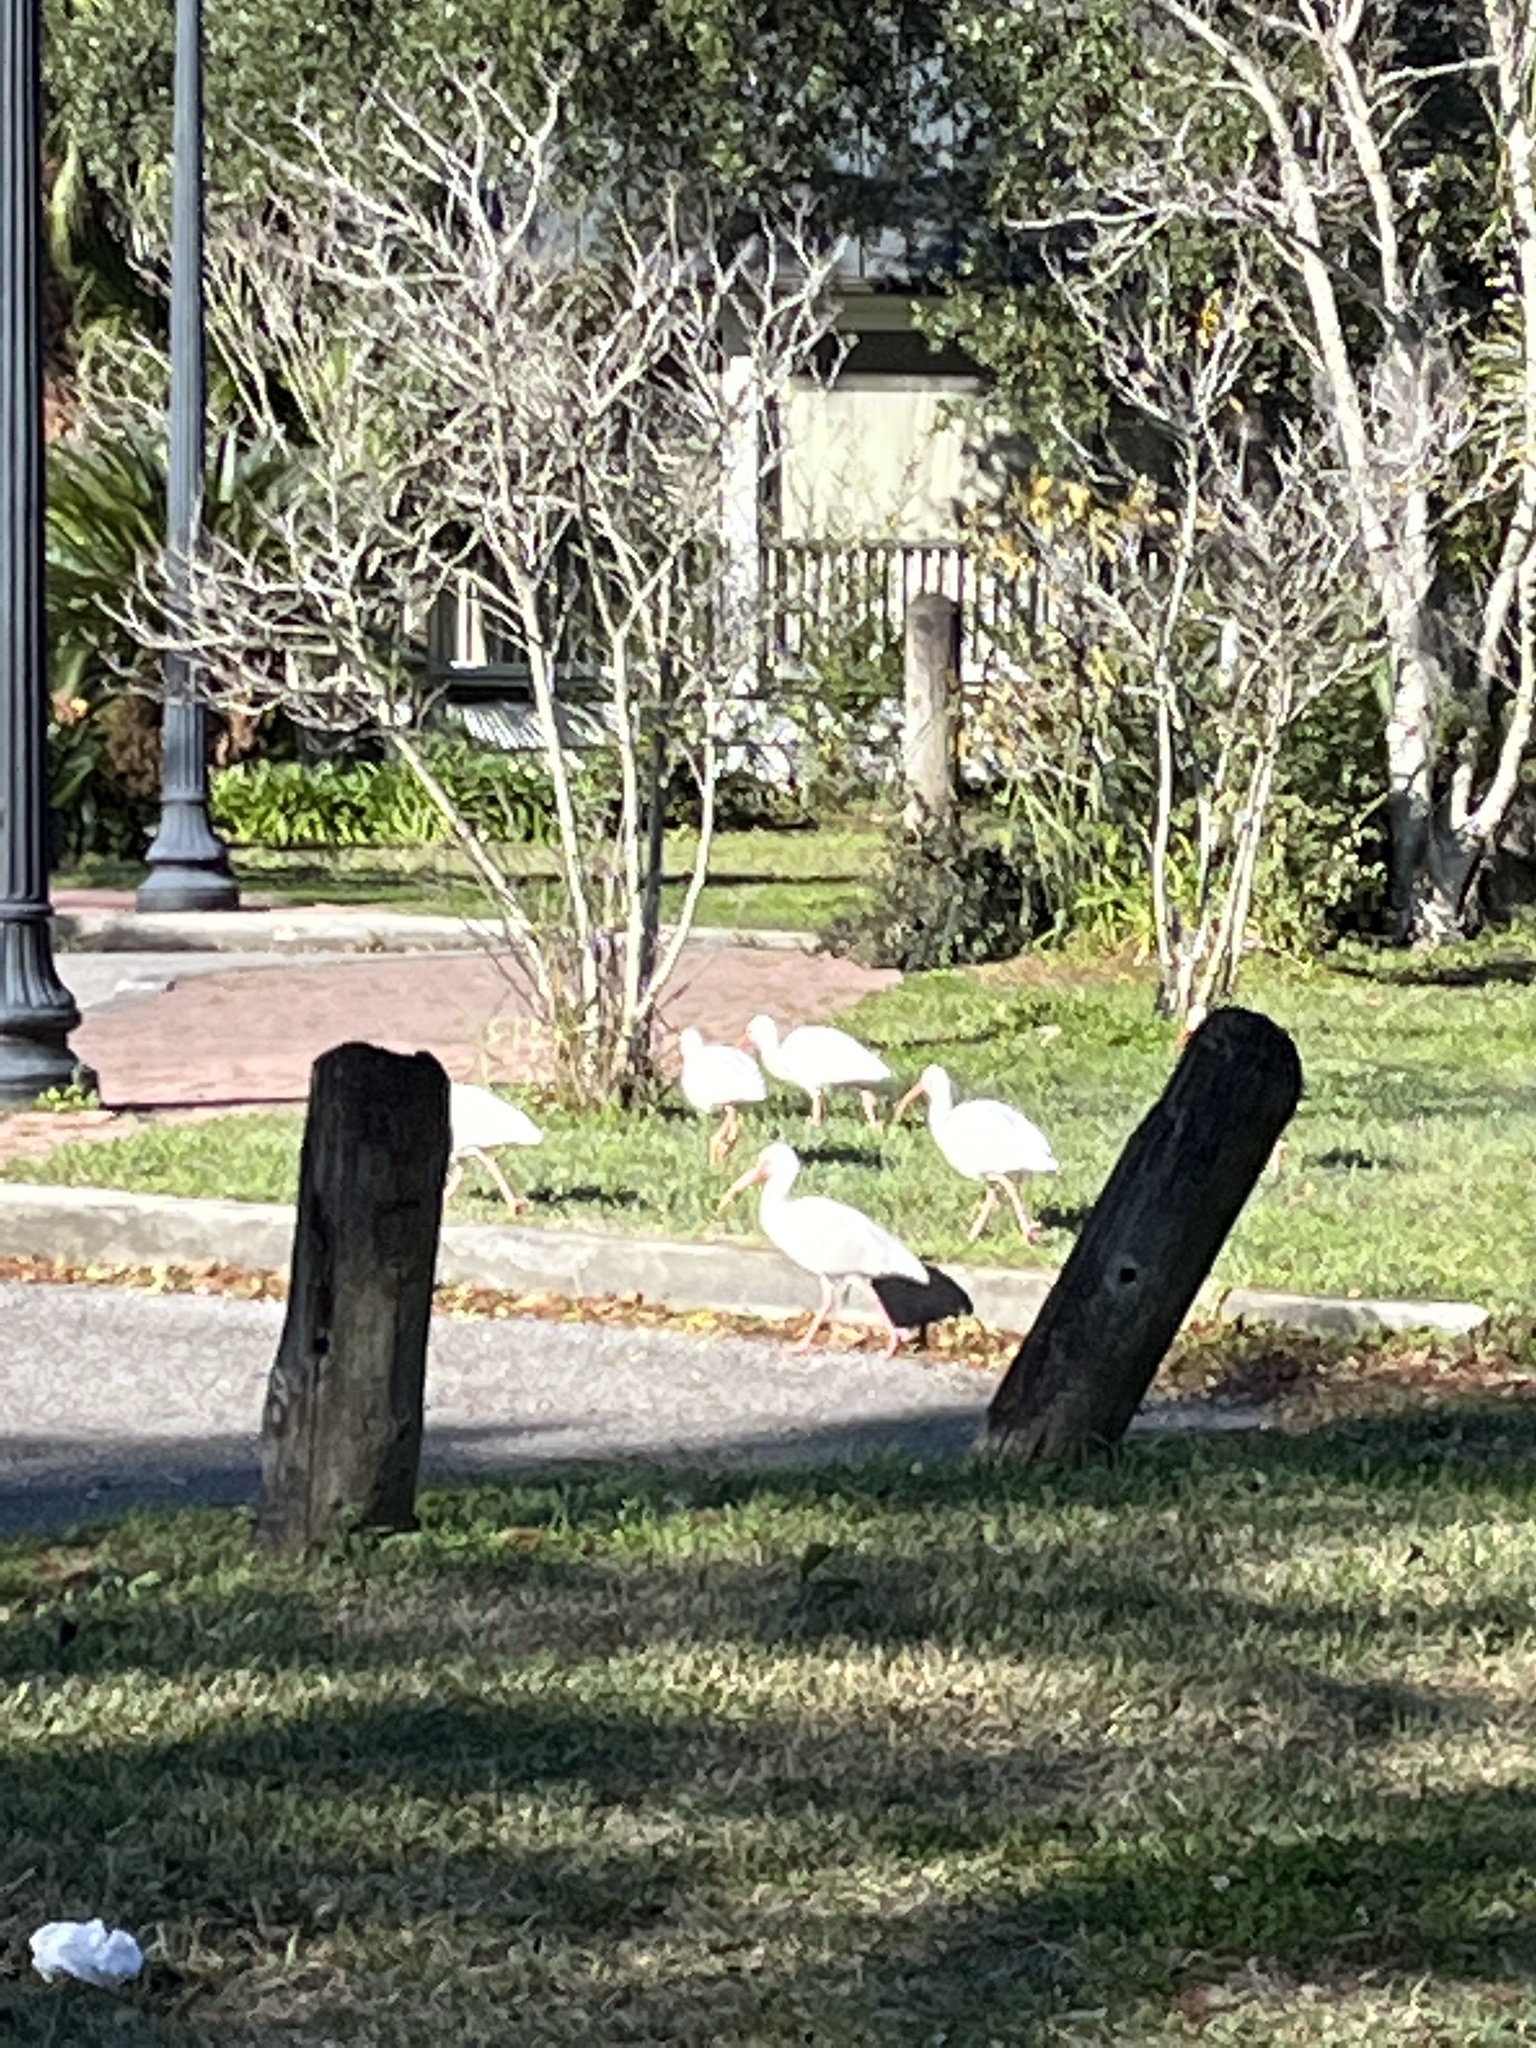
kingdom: Animalia
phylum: Chordata
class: Aves
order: Pelecaniformes
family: Threskiornithidae
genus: Eudocimus
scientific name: Eudocimus albus
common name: White ibis
